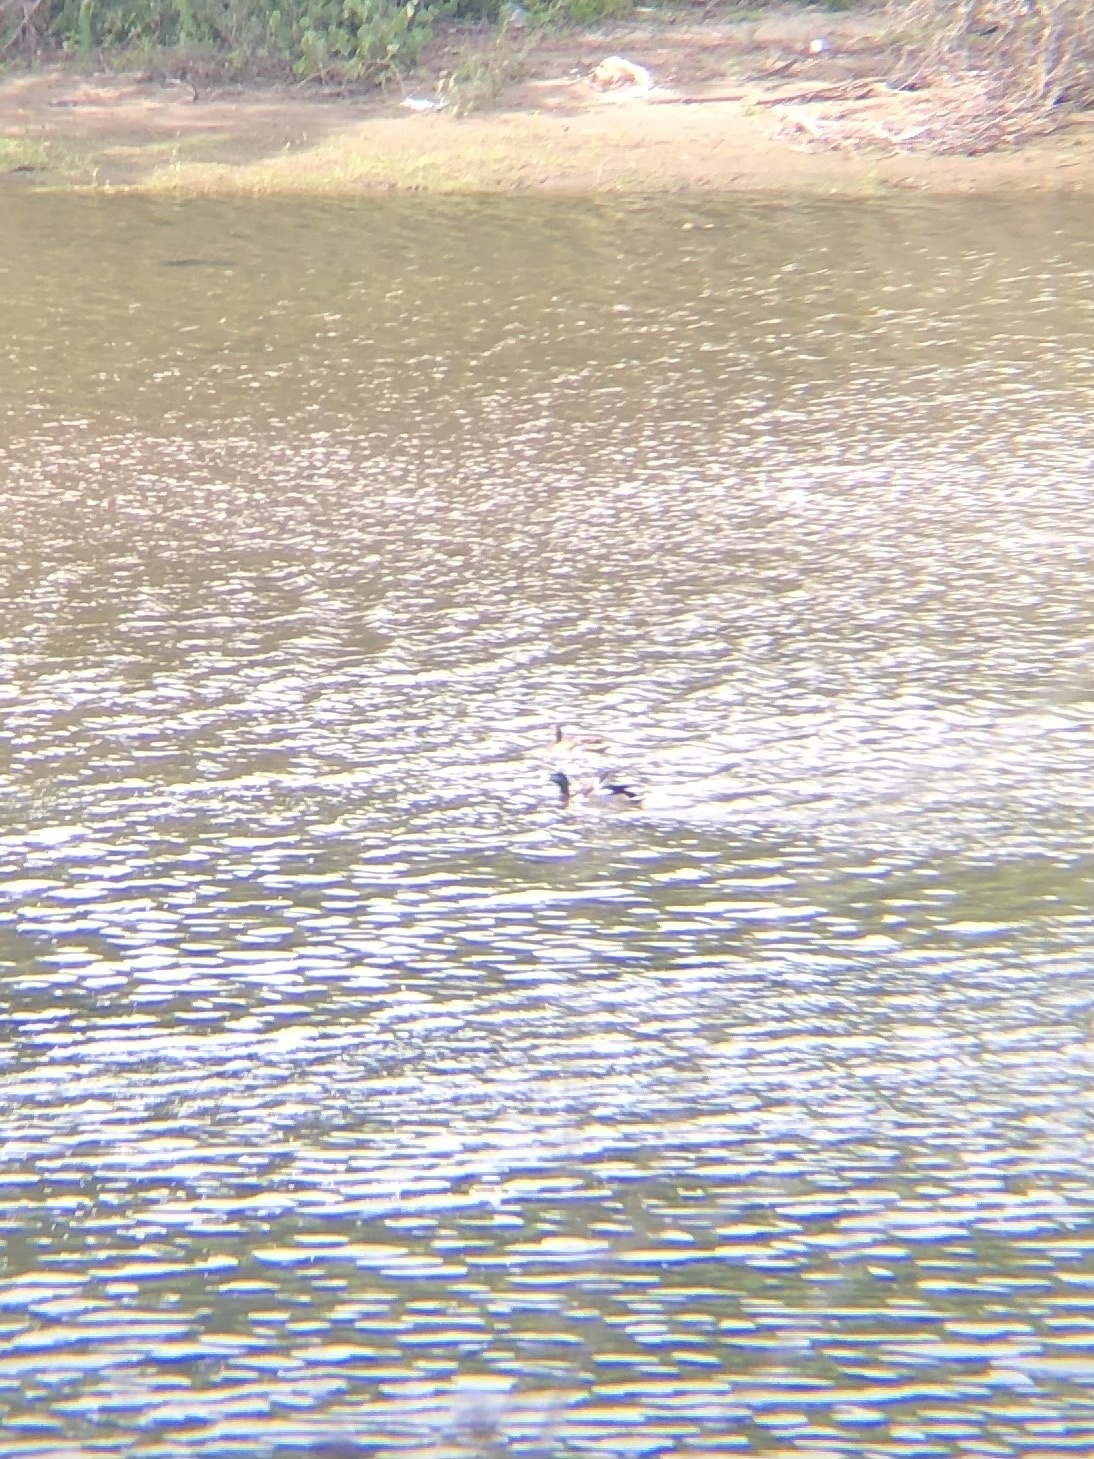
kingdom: Animalia
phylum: Chordata
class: Aves
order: Anseriformes
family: Anatidae
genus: Anas
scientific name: Anas platyrhynchos
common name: Mallard
